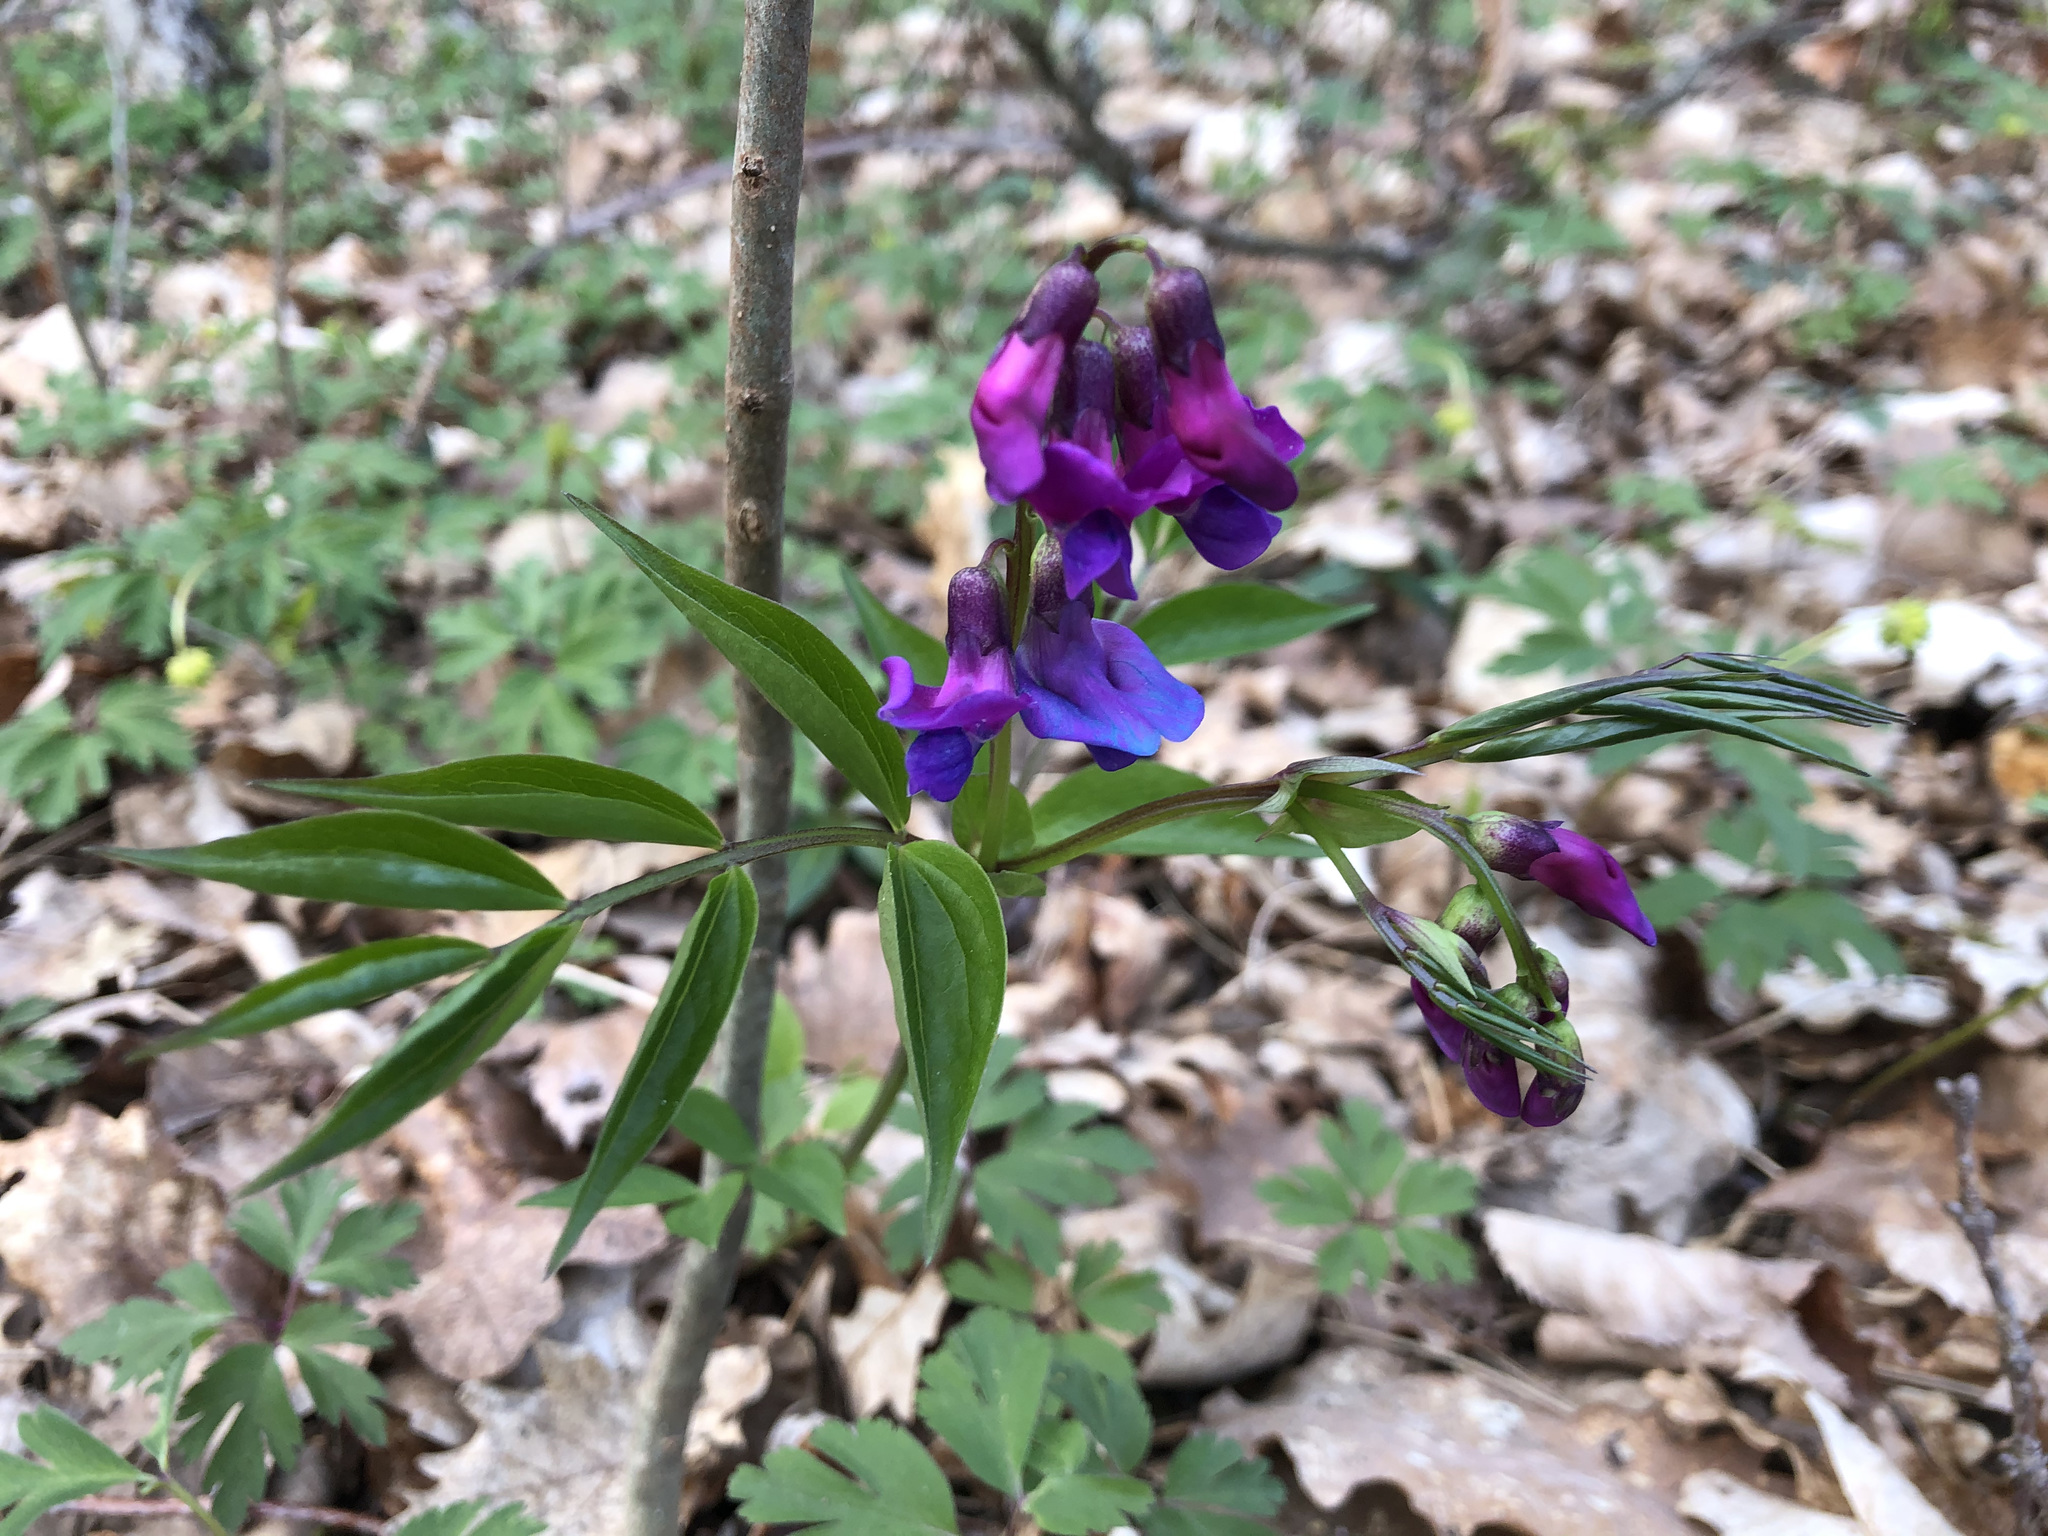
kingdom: Plantae
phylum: Tracheophyta
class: Magnoliopsida
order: Fabales
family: Fabaceae
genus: Lathyrus
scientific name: Lathyrus vernus
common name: Spring pea
